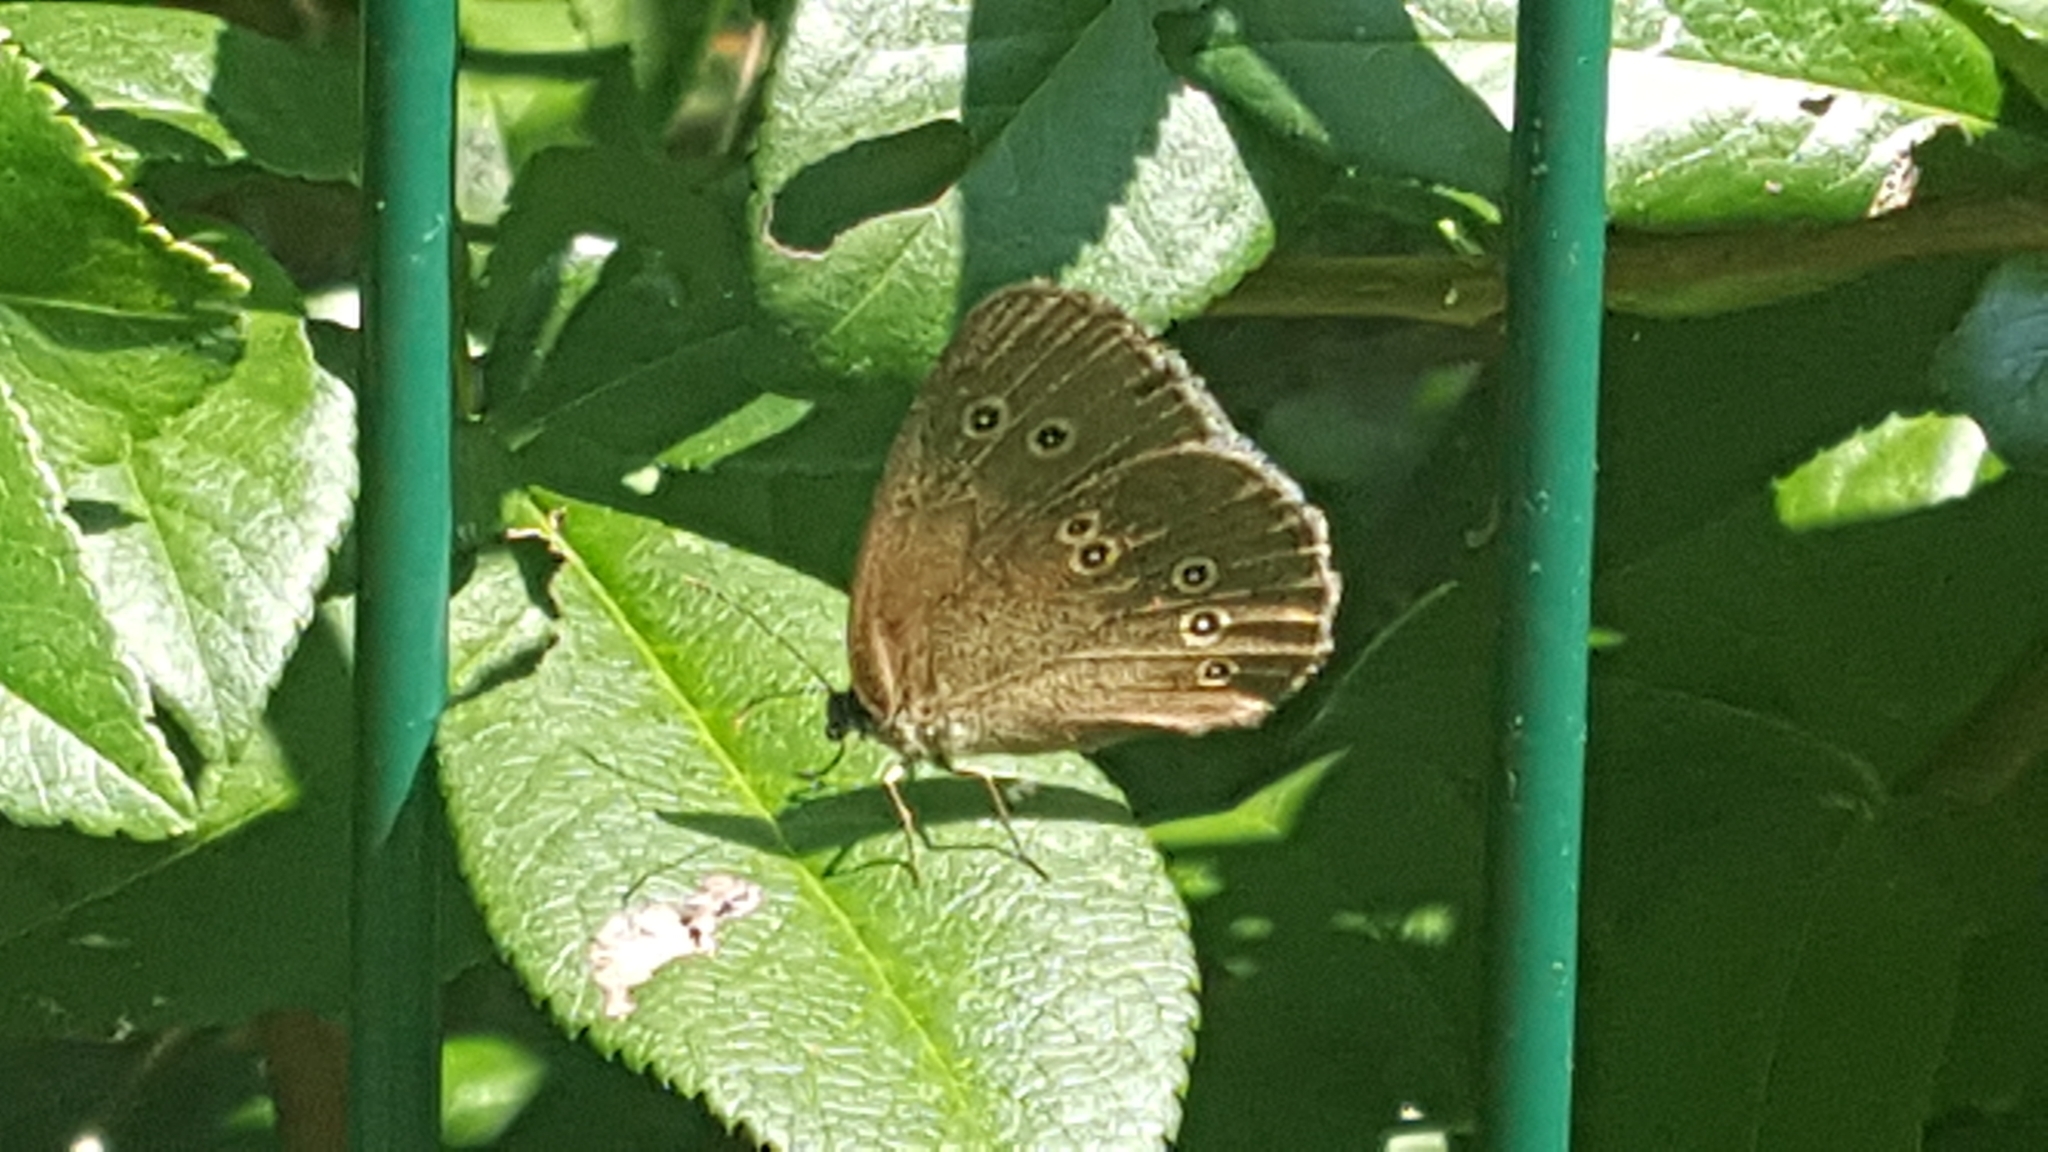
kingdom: Animalia
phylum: Arthropoda
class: Insecta
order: Lepidoptera
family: Nymphalidae
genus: Aphantopus
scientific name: Aphantopus hyperantus
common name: Ringlet
